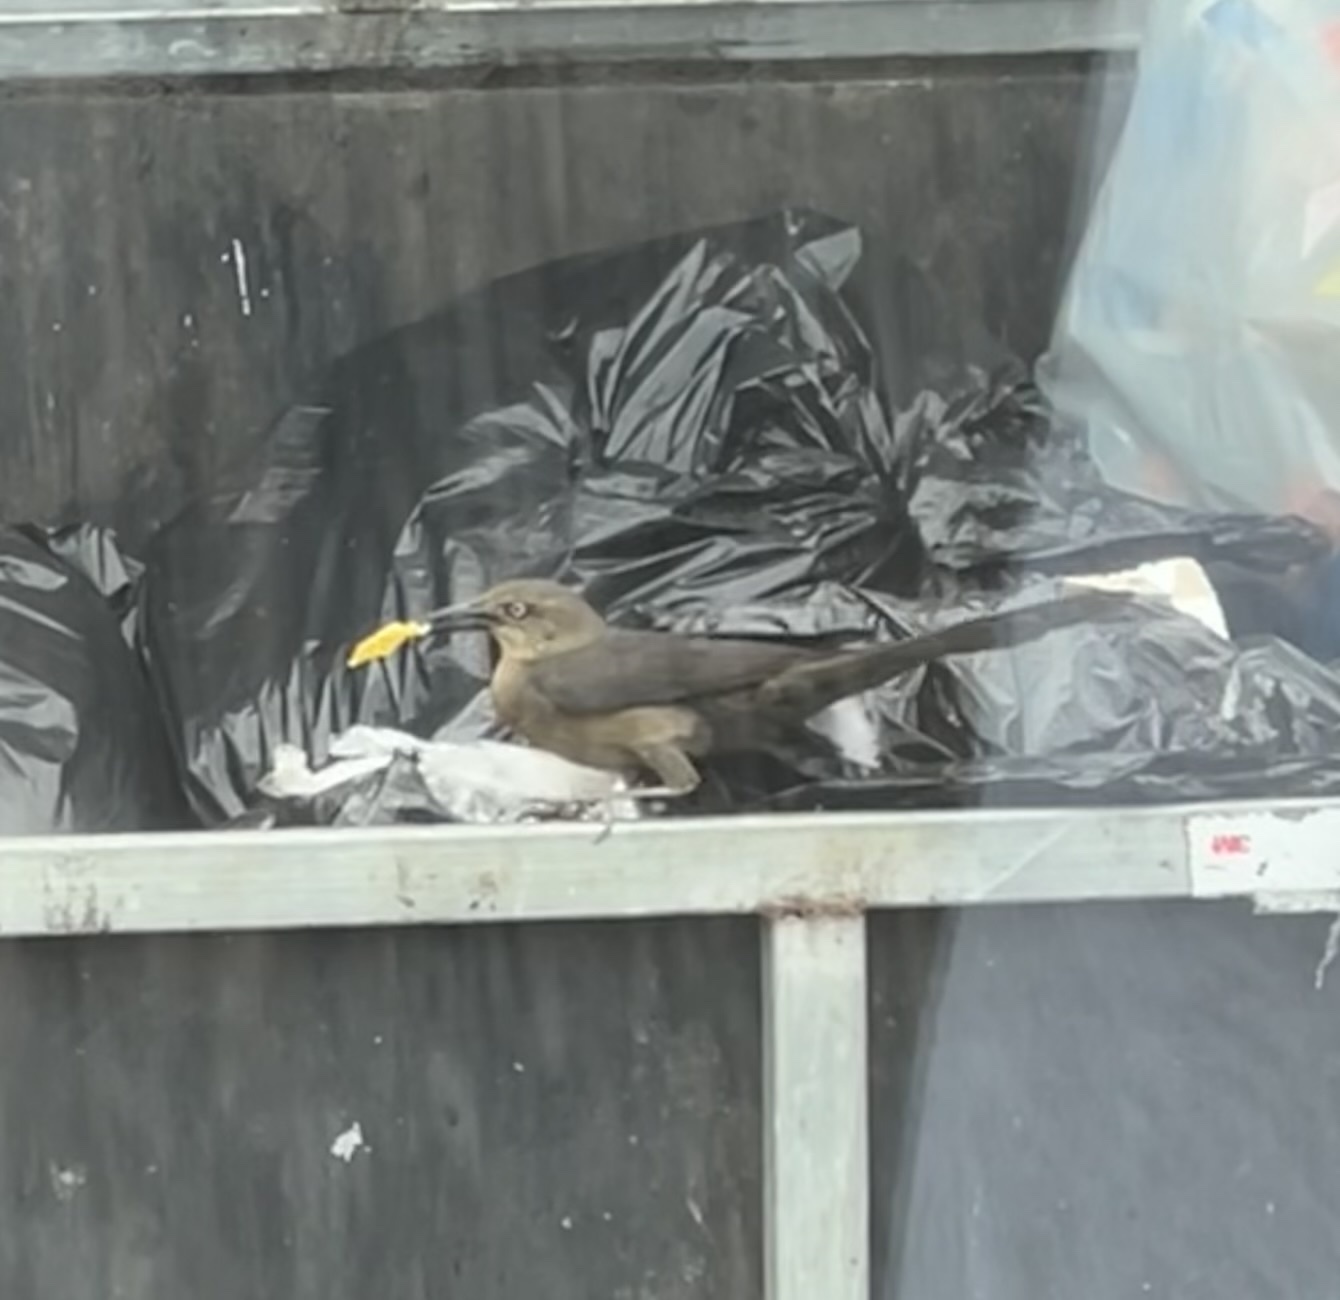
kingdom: Animalia
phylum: Chordata
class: Aves
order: Passeriformes
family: Icteridae
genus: Quiscalus
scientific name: Quiscalus mexicanus
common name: Great-tailed grackle
